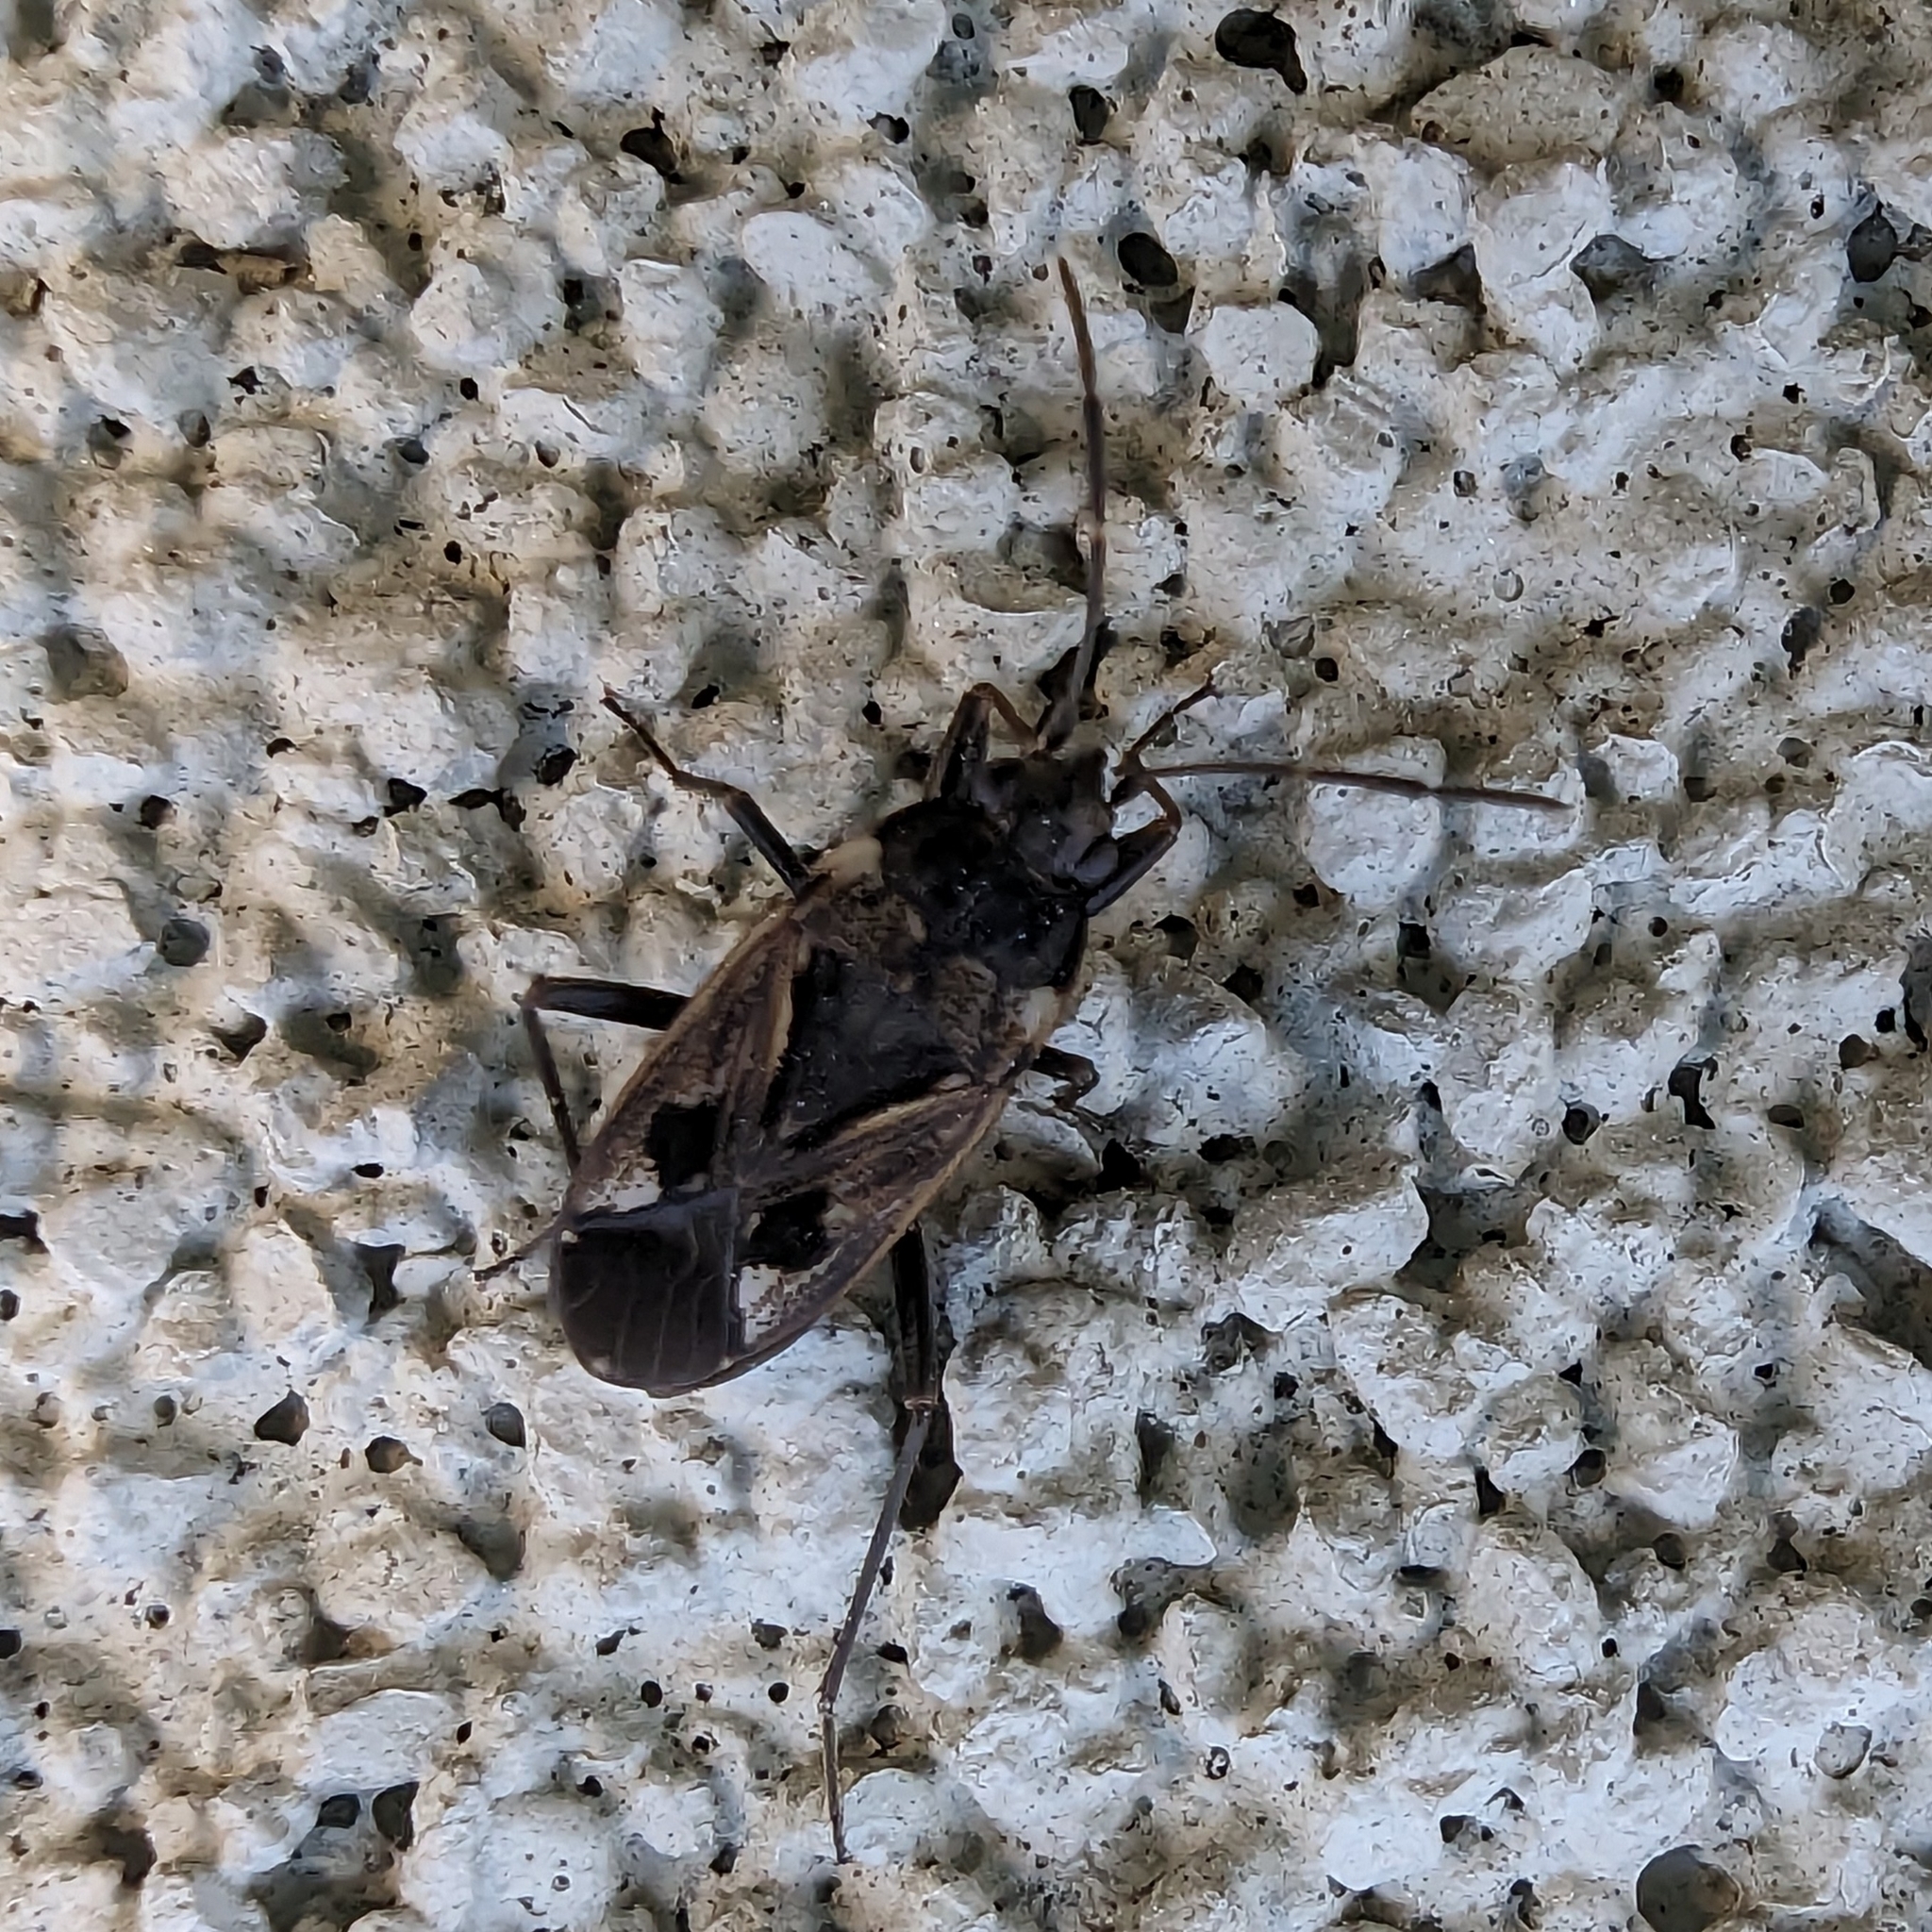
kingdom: Animalia
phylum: Arthropoda
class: Insecta
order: Hemiptera
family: Rhyparochromidae
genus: Rhyparochromus
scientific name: Rhyparochromus vulgaris
